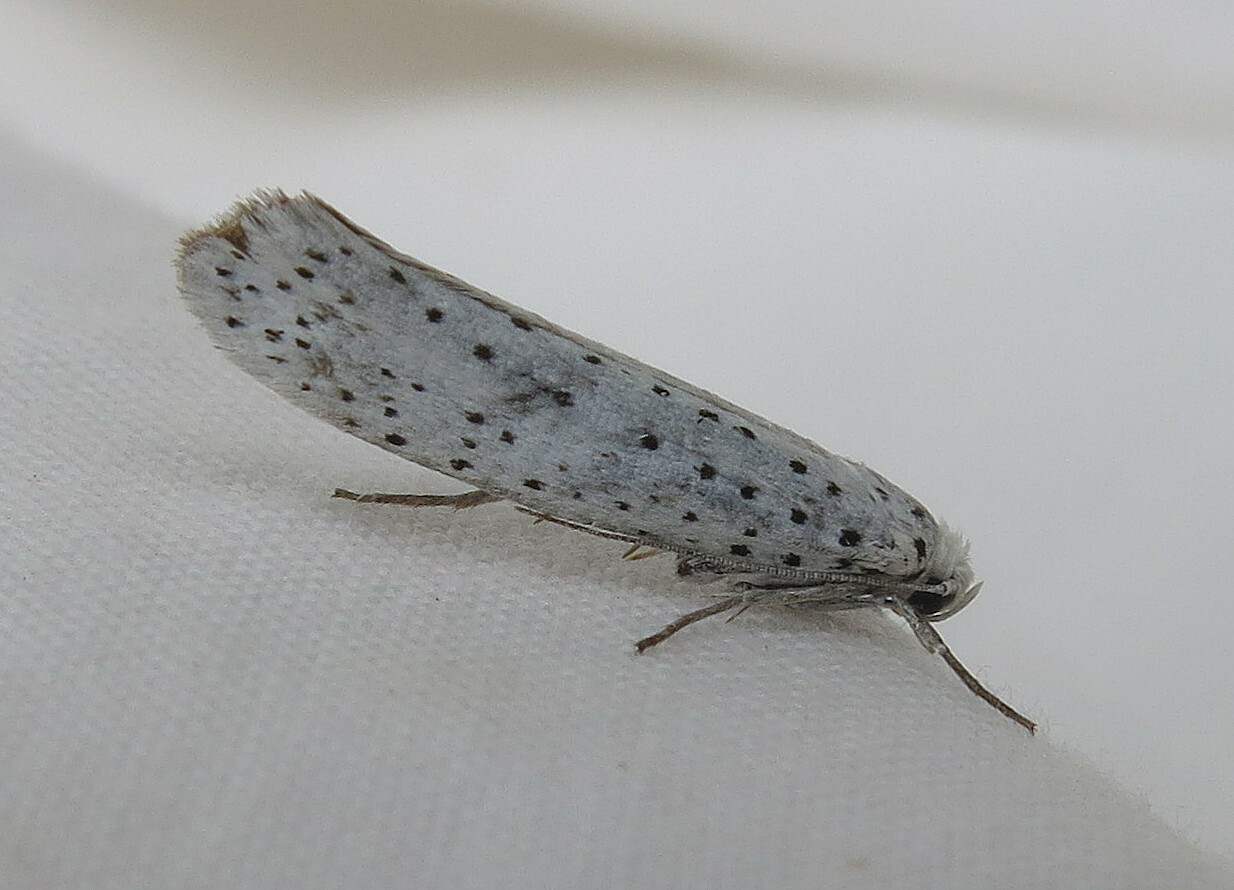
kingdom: Animalia
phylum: Arthropoda
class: Insecta
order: Lepidoptera
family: Yponomeutidae
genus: Yponomeuta
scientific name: Yponomeuta evonymella
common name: Bird-cherry ermine
